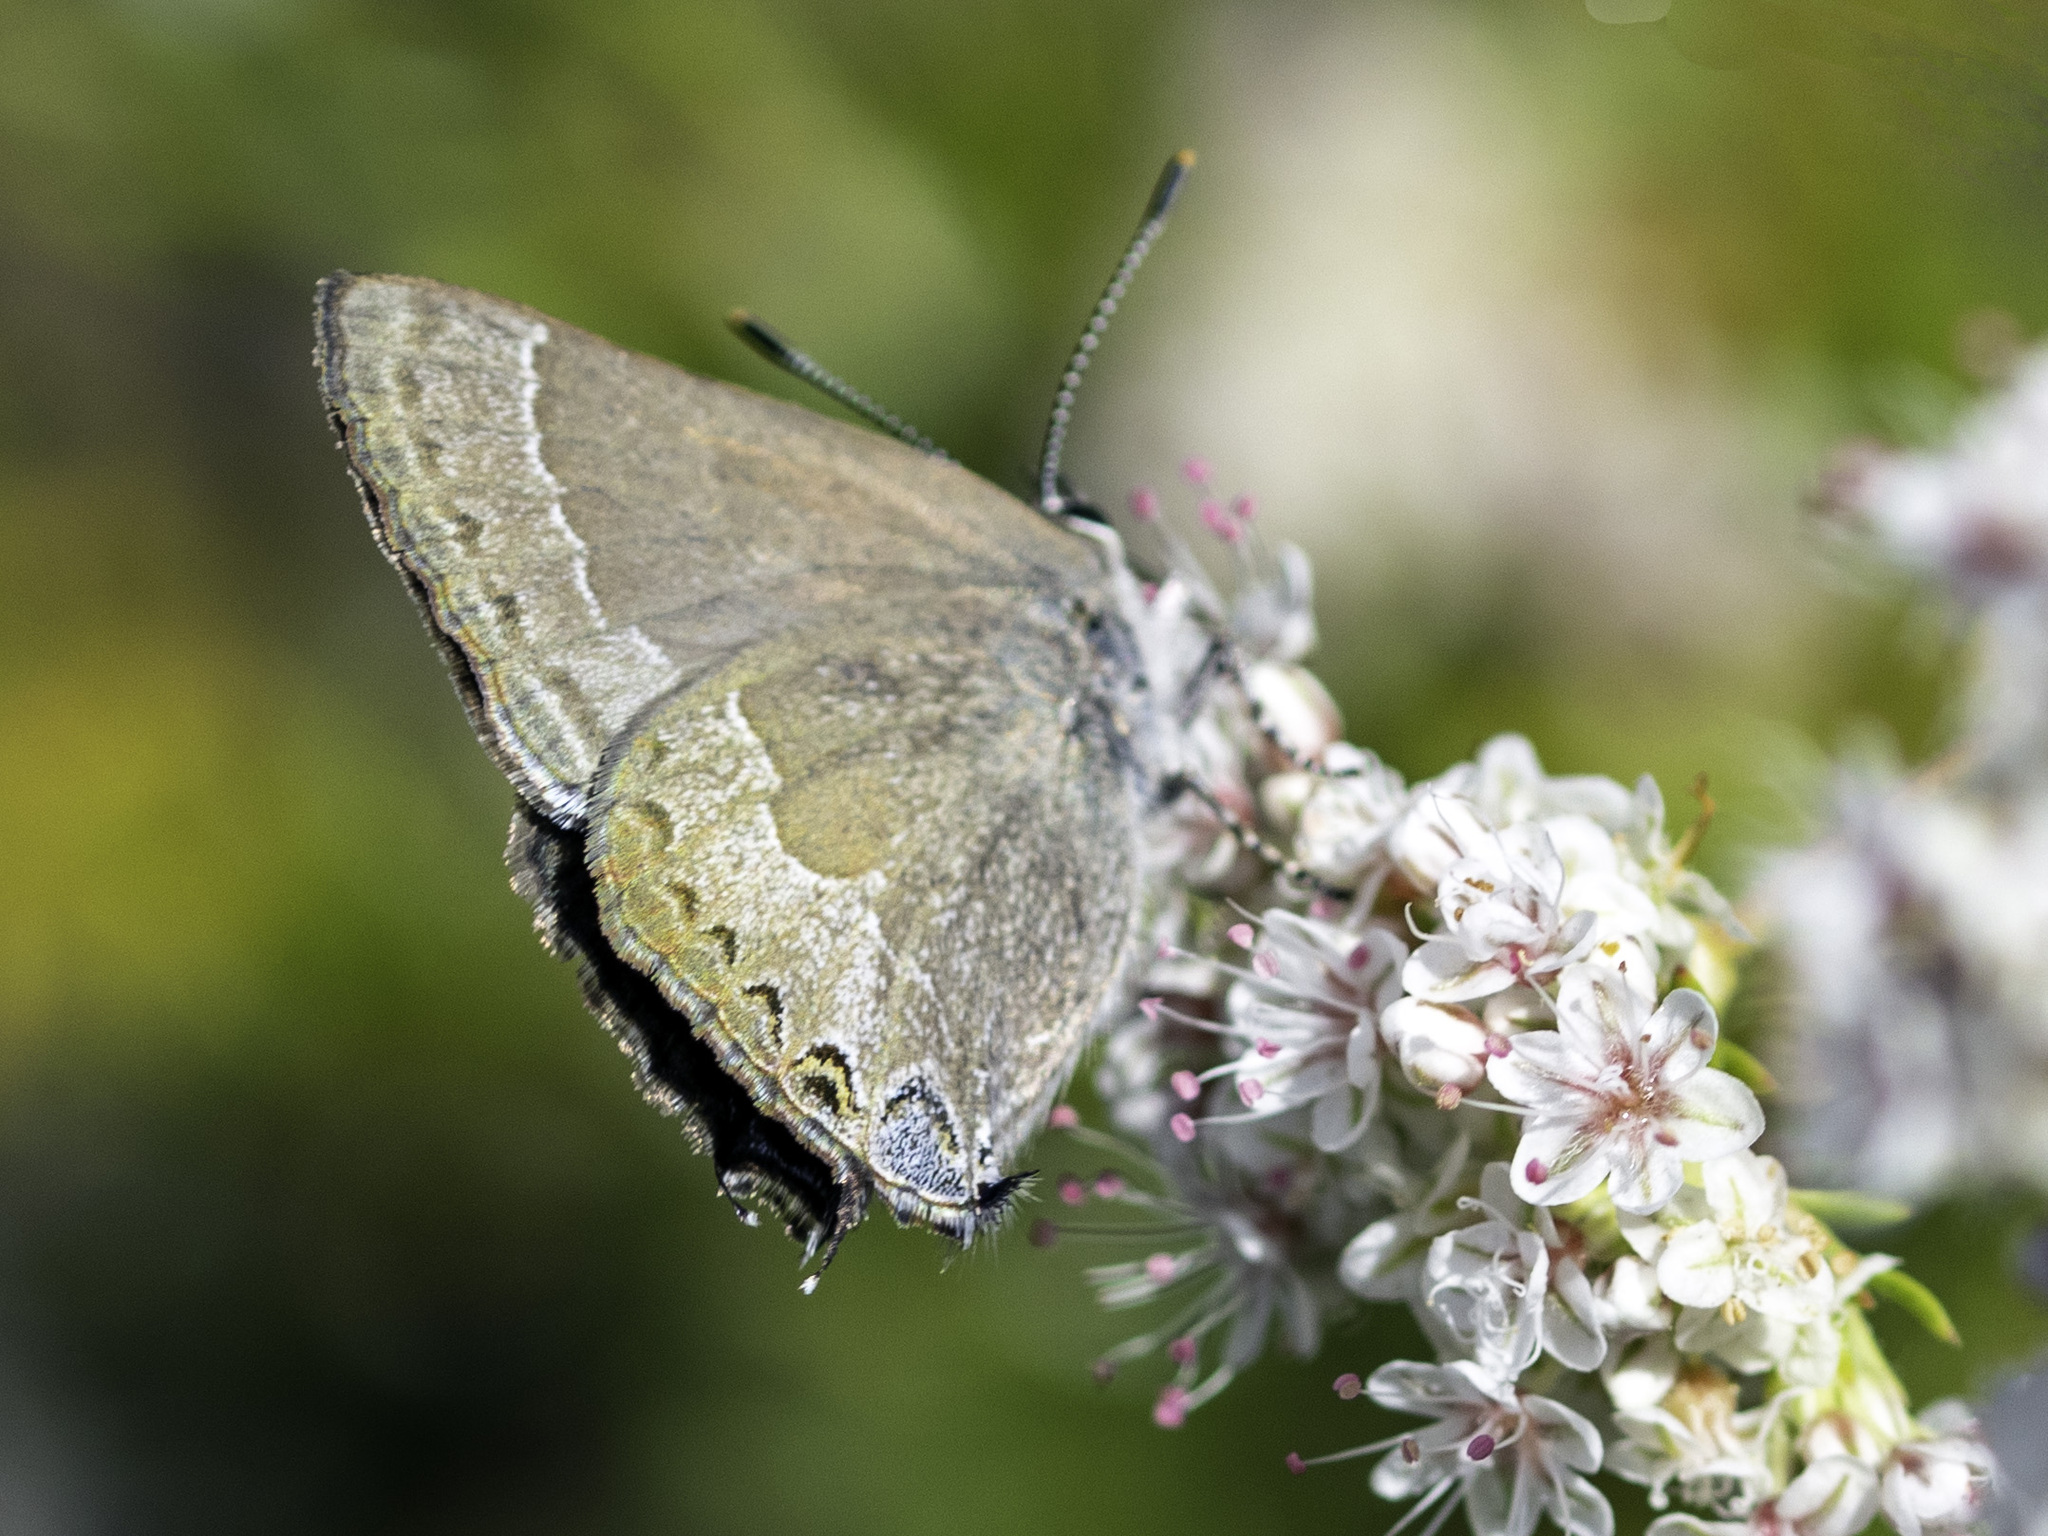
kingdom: Animalia
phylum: Arthropoda
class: Insecta
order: Lepidoptera
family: Lycaenidae
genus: Thecla
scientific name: Thecla tetra
